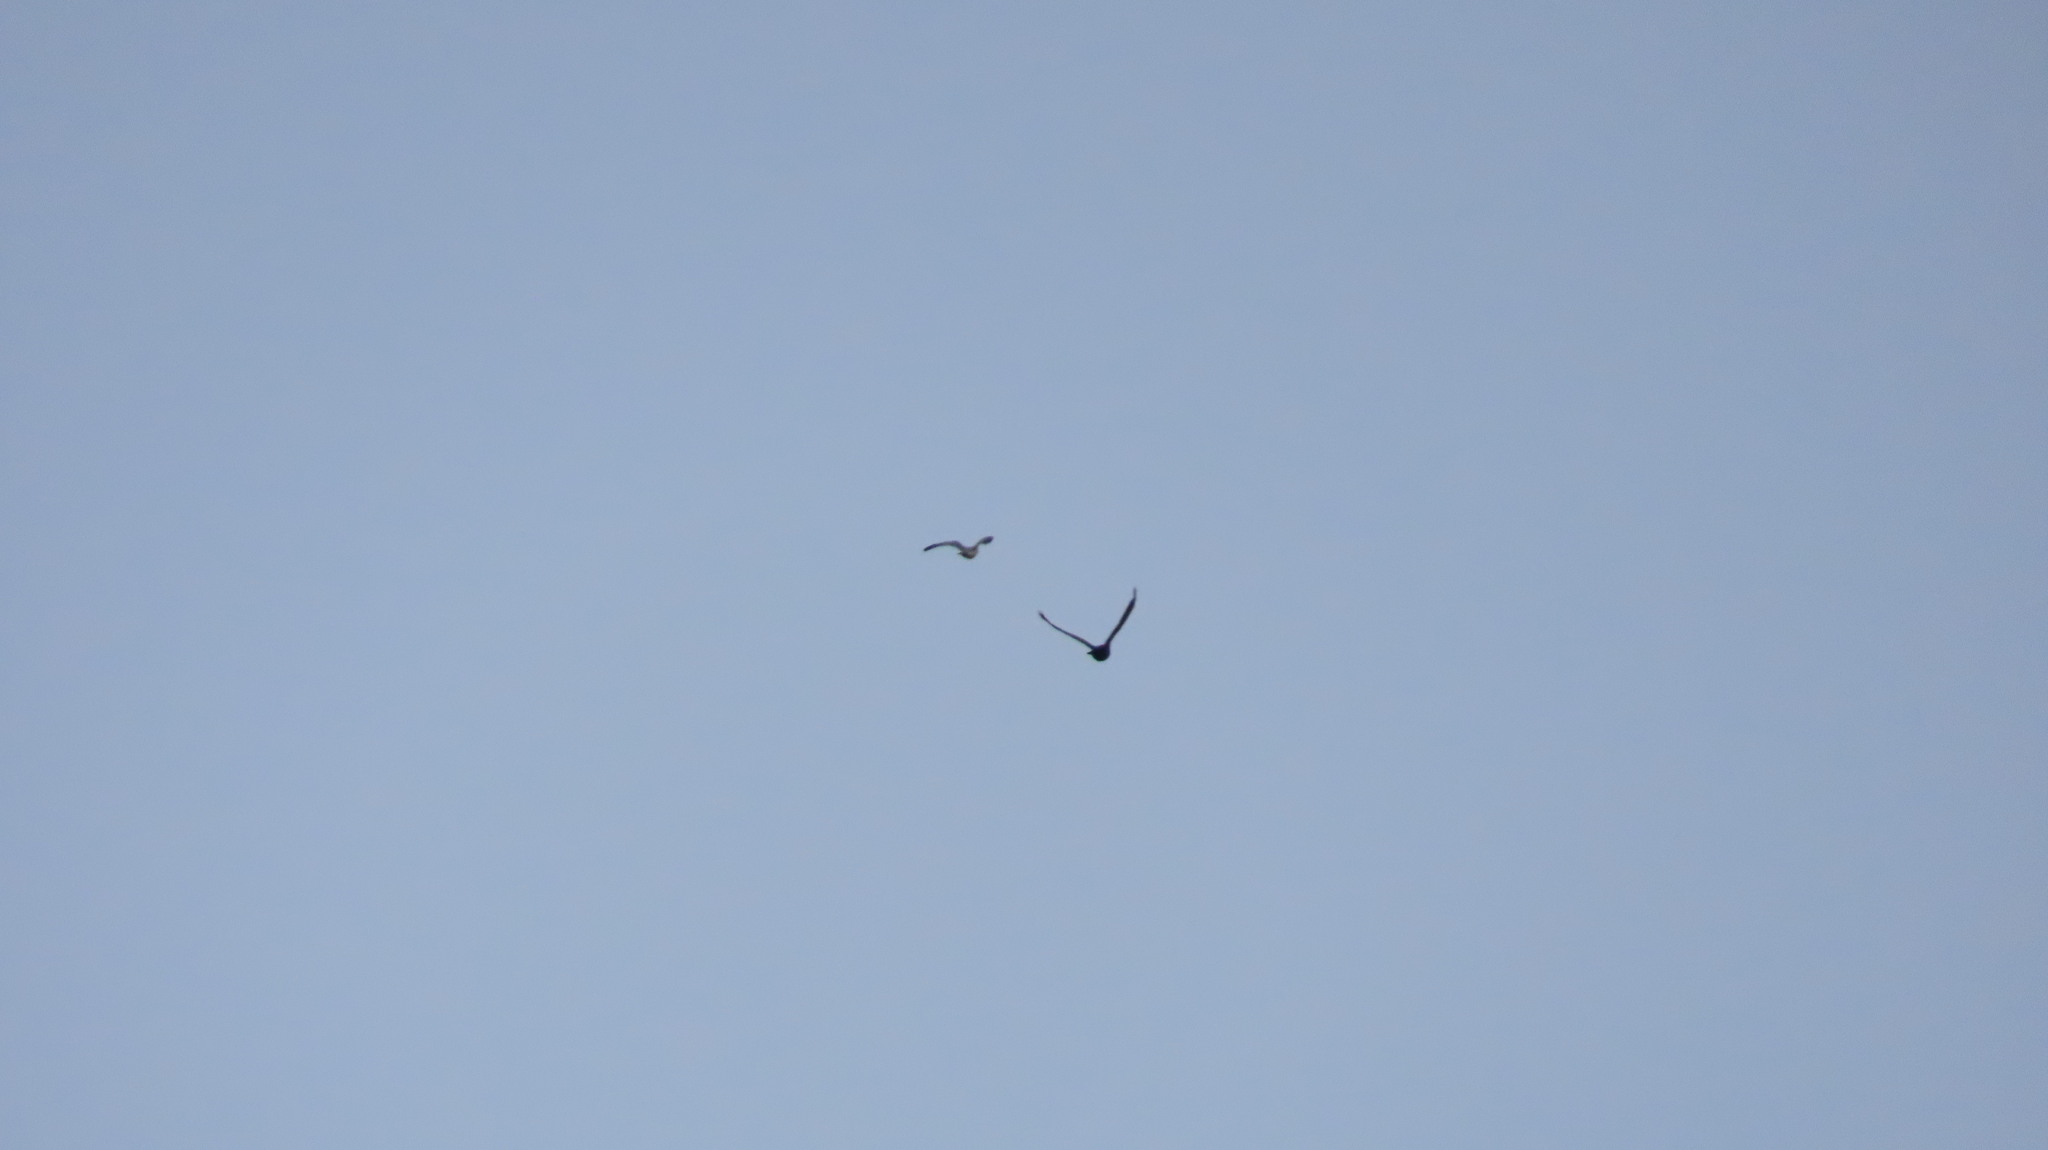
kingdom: Animalia
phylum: Chordata
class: Aves
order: Accipitriformes
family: Accipitridae
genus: Accipiter
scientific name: Accipiter badius
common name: Shikra
